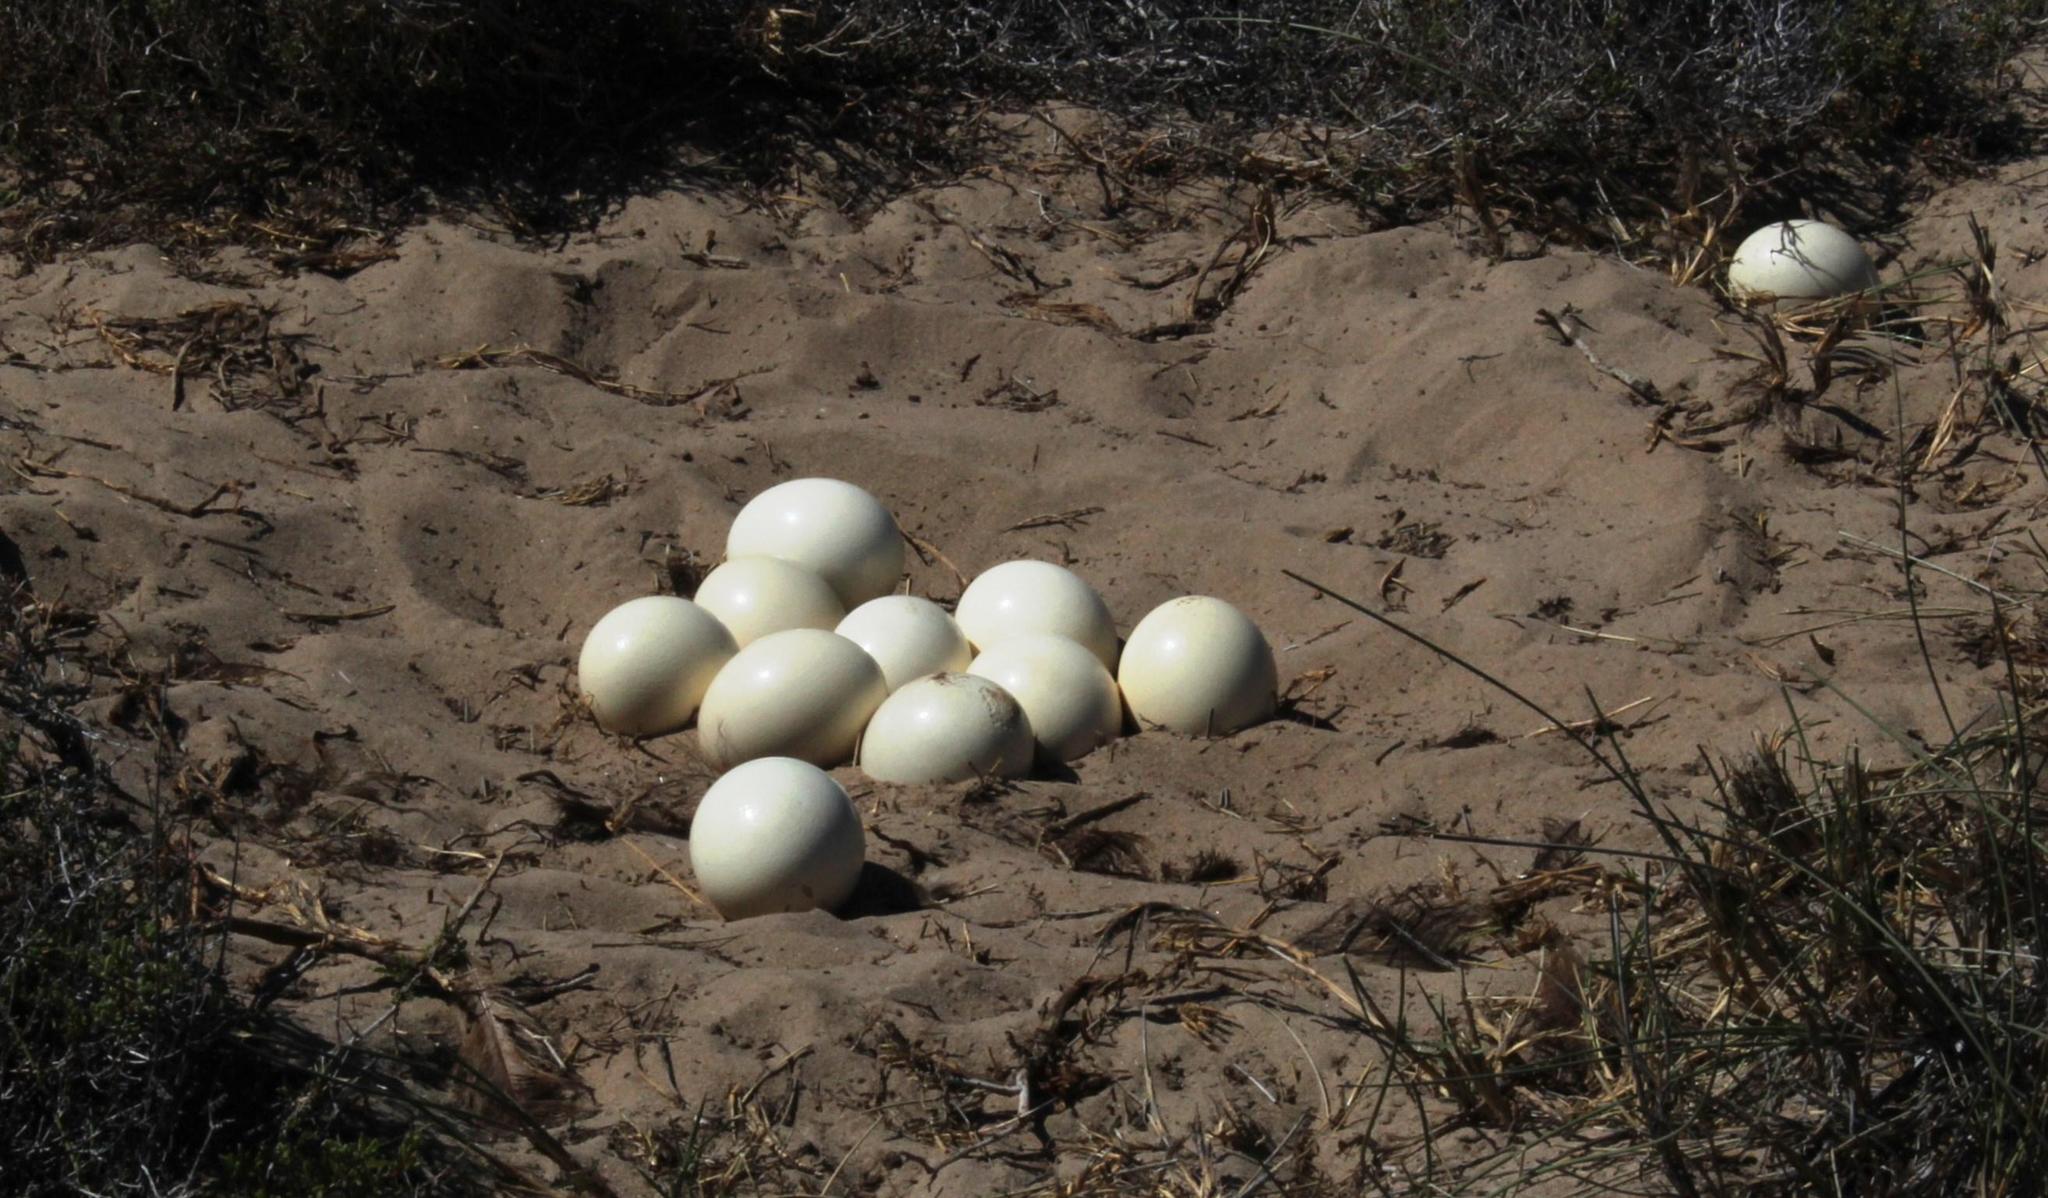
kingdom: Animalia
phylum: Chordata
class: Aves
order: Struthioniformes
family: Struthionidae
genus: Struthio
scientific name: Struthio camelus
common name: Common ostrich
